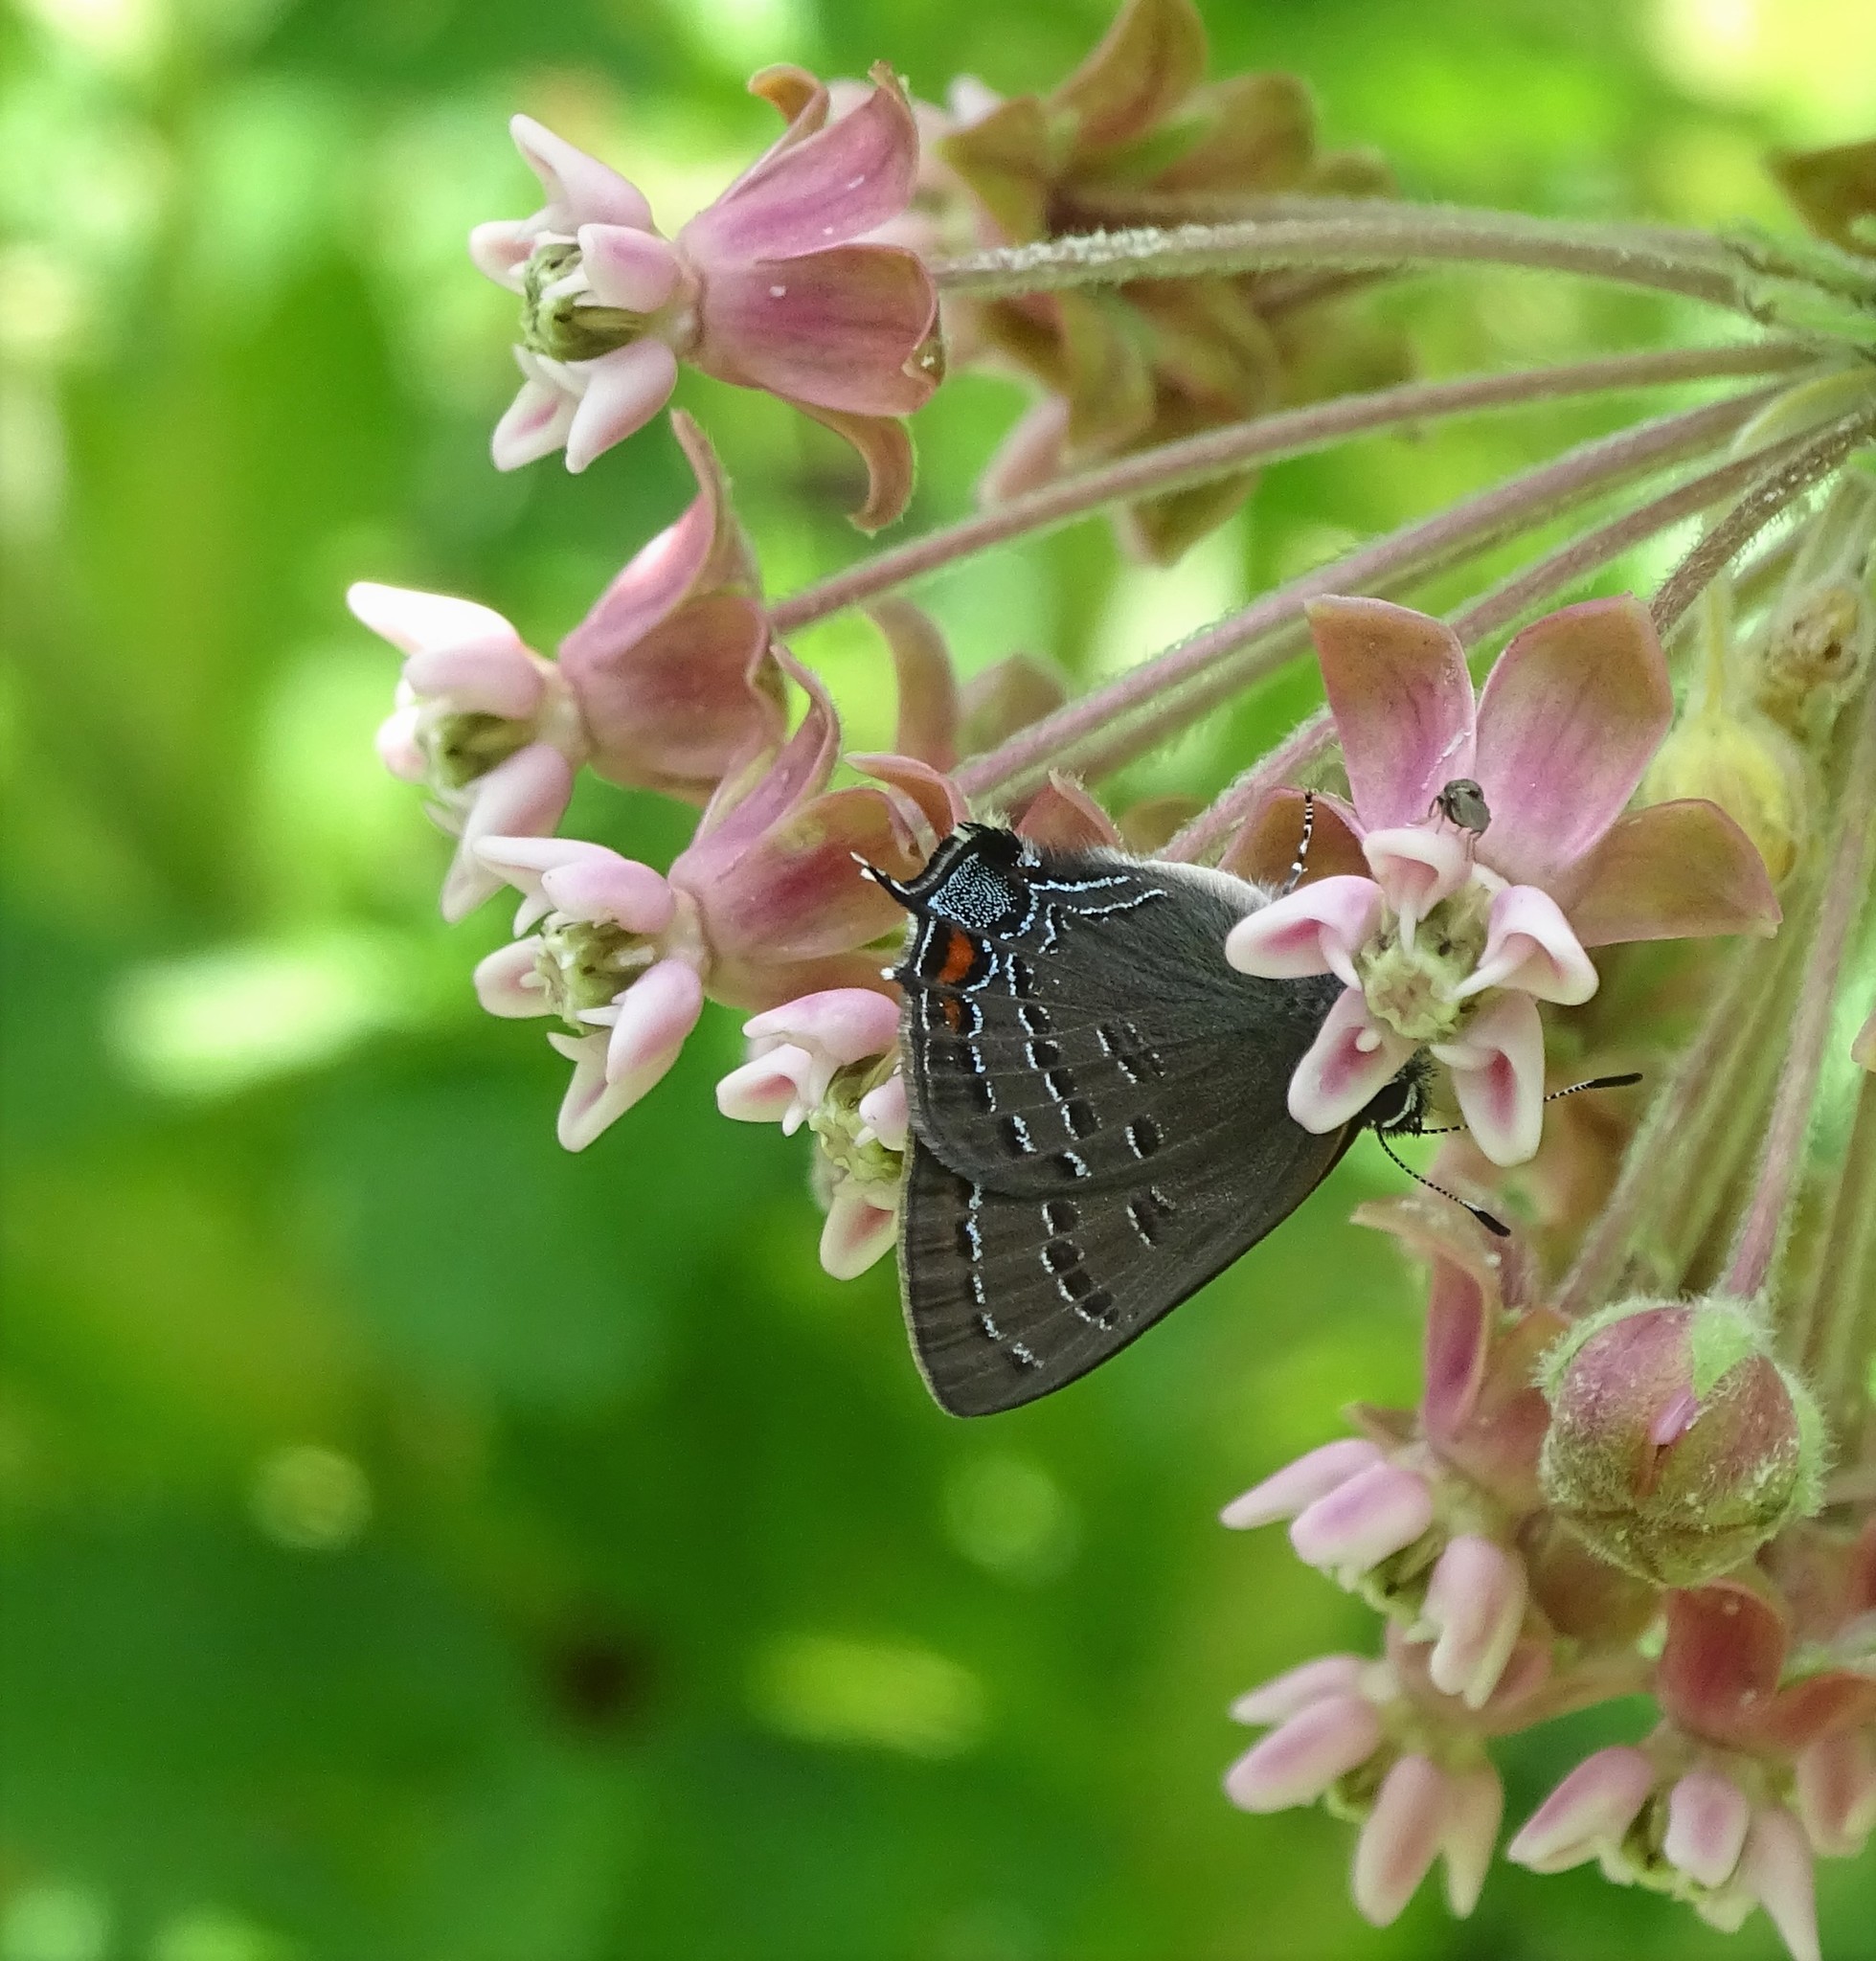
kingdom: Animalia
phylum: Arthropoda
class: Insecta
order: Lepidoptera
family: Lycaenidae
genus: Satyrium
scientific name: Satyrium calanus
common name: Banded hairstreak
